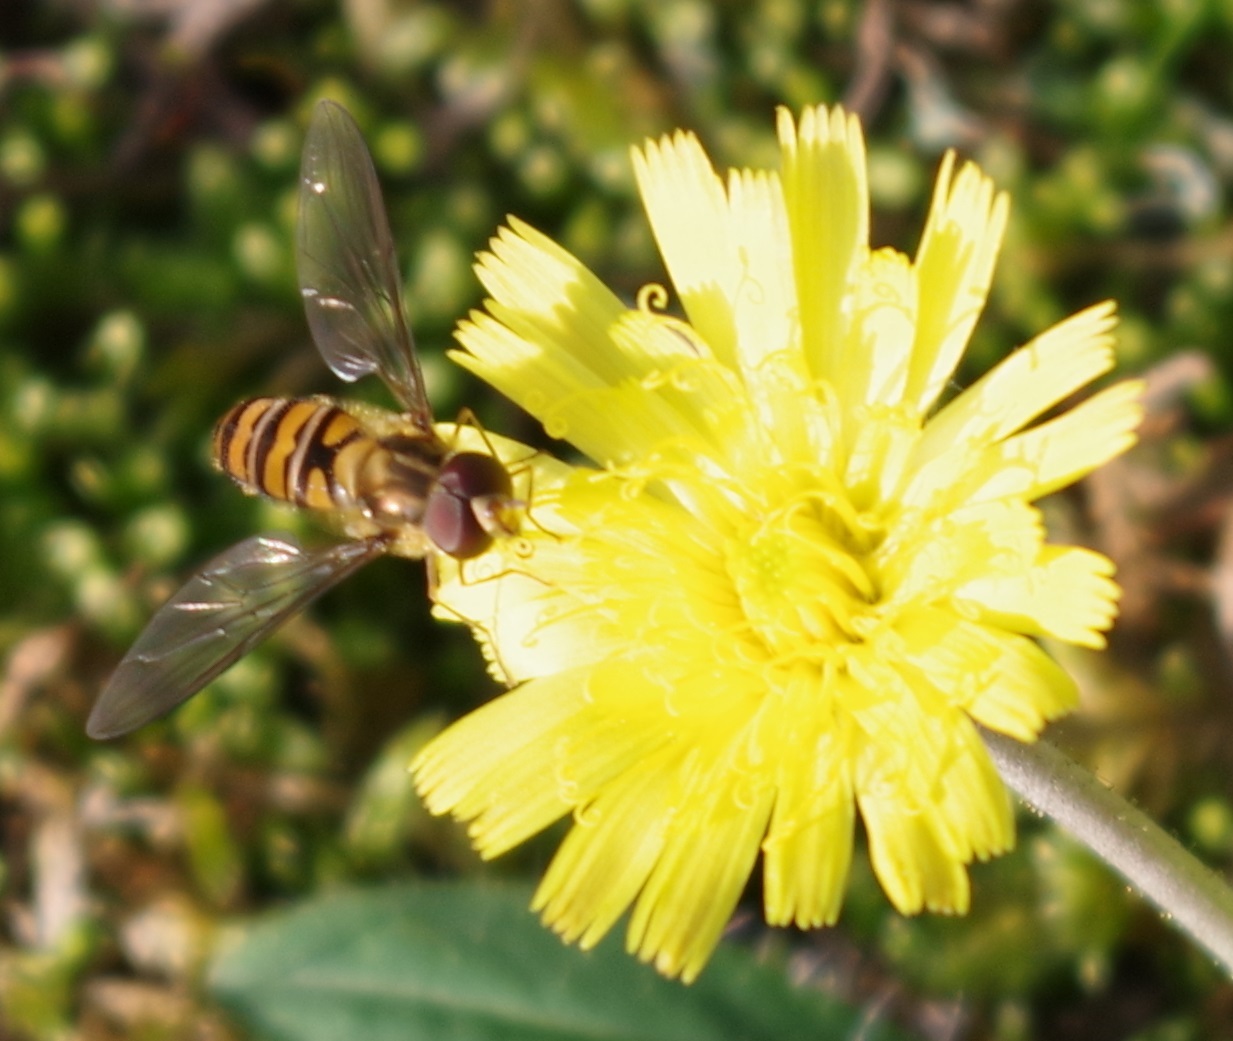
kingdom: Animalia
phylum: Arthropoda
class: Insecta
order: Diptera
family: Syrphidae
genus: Episyrphus
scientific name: Episyrphus balteatus
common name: Marmalade hoverfly
